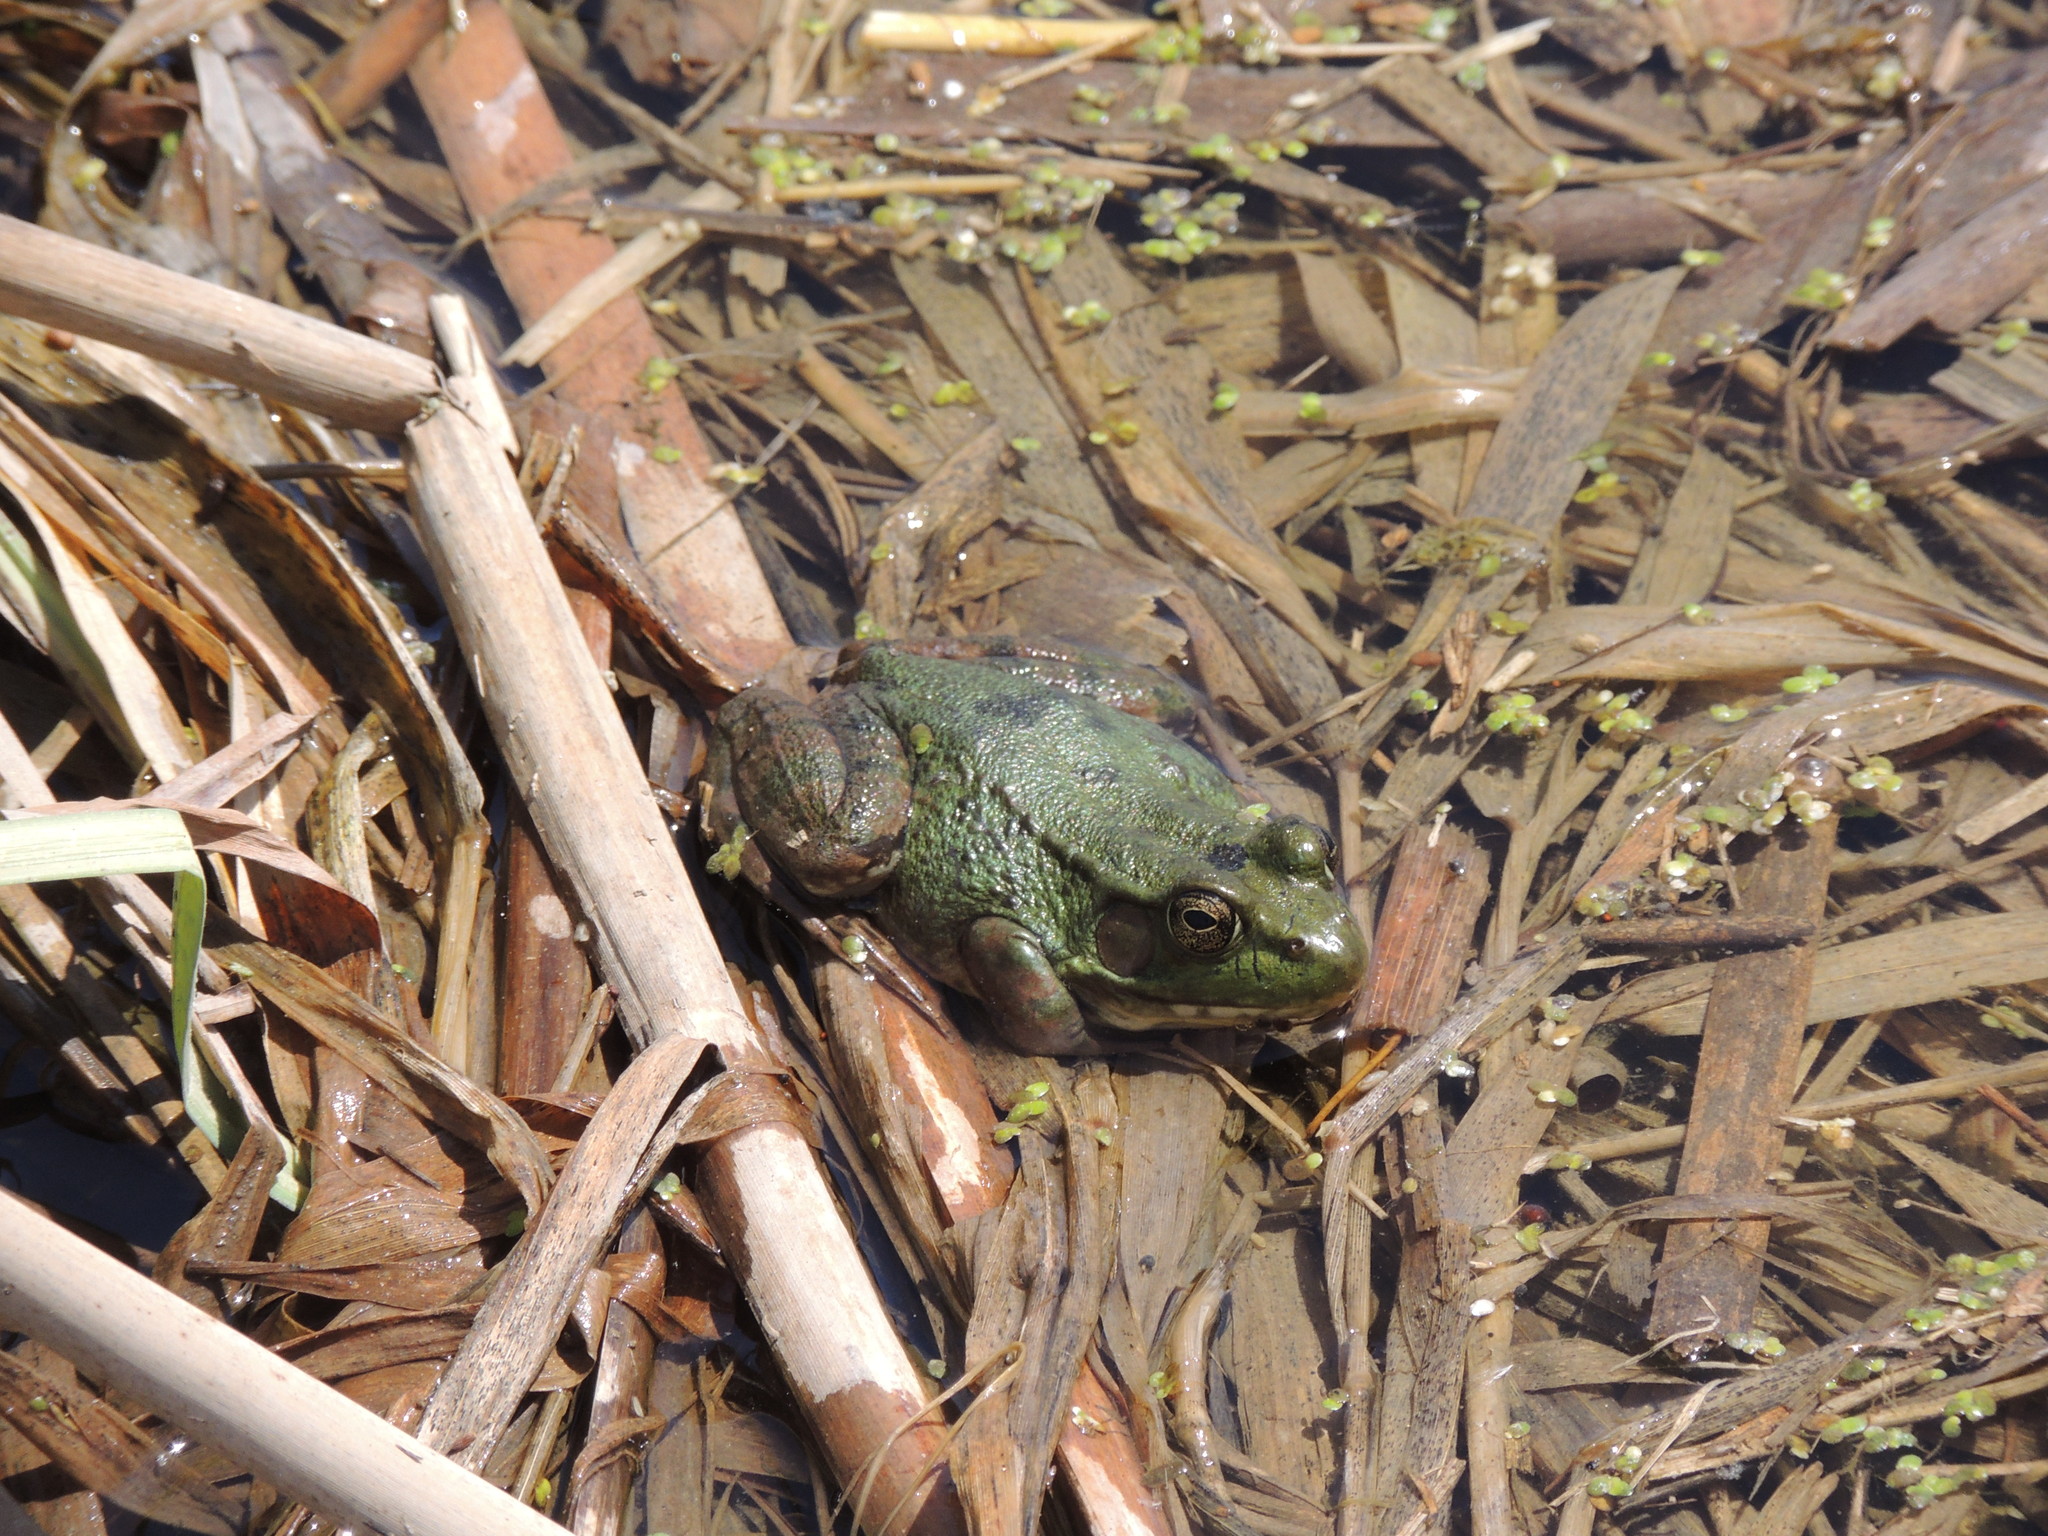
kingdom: Animalia
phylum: Chordata
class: Amphibia
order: Anura
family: Ranidae
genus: Lithobates
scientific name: Lithobates clamitans
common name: Green frog
